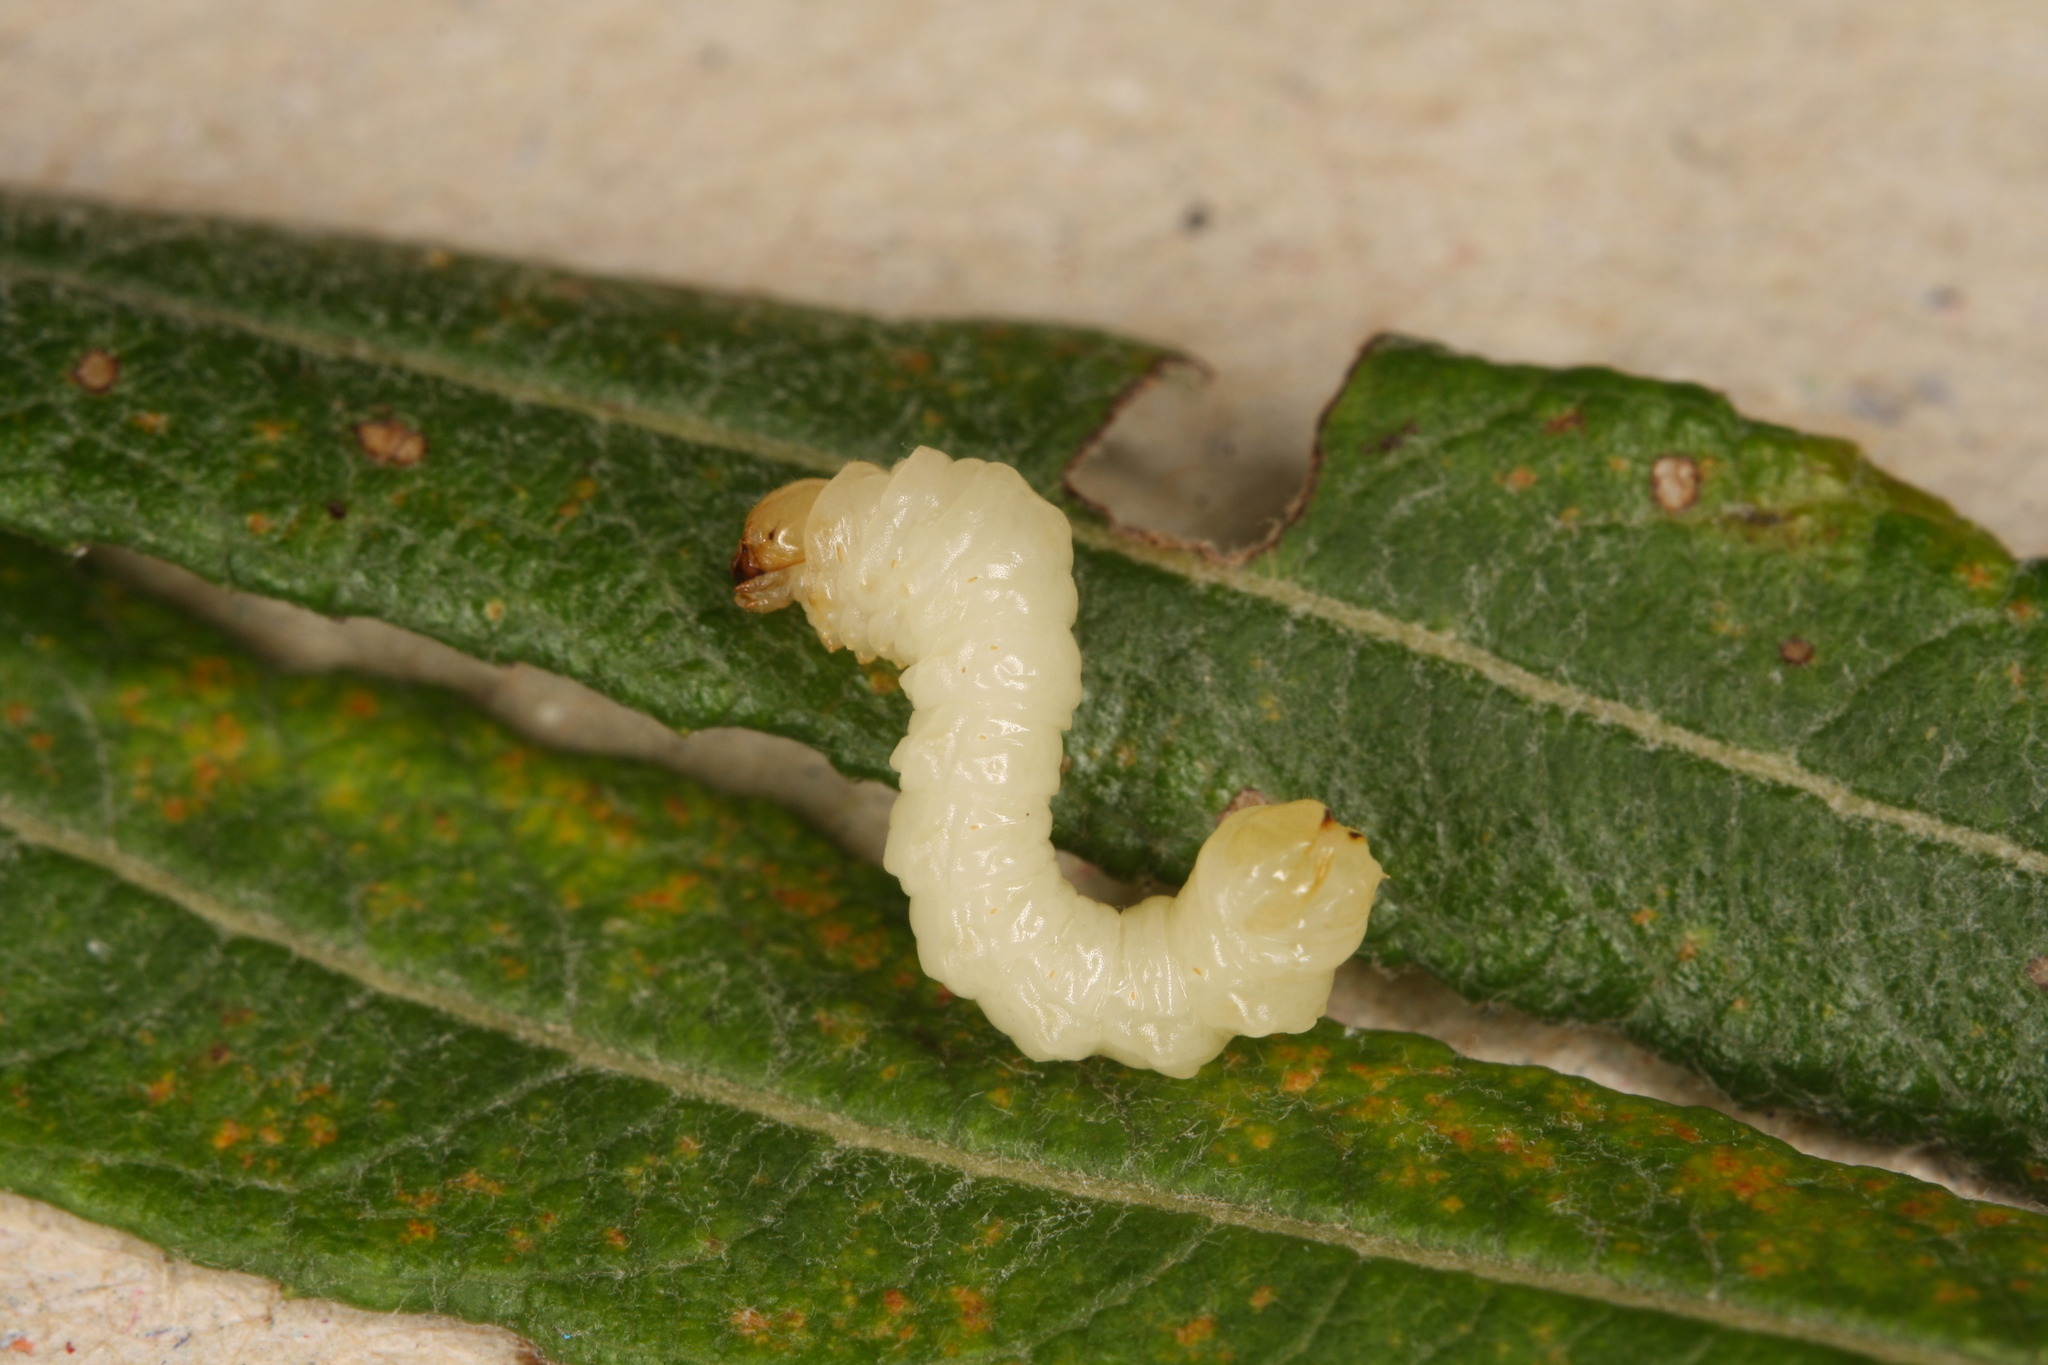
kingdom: Animalia
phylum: Arthropoda
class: Insecta
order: Hymenoptera
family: Cephidae
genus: Hartigia
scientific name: Hartigia xanthostoma
